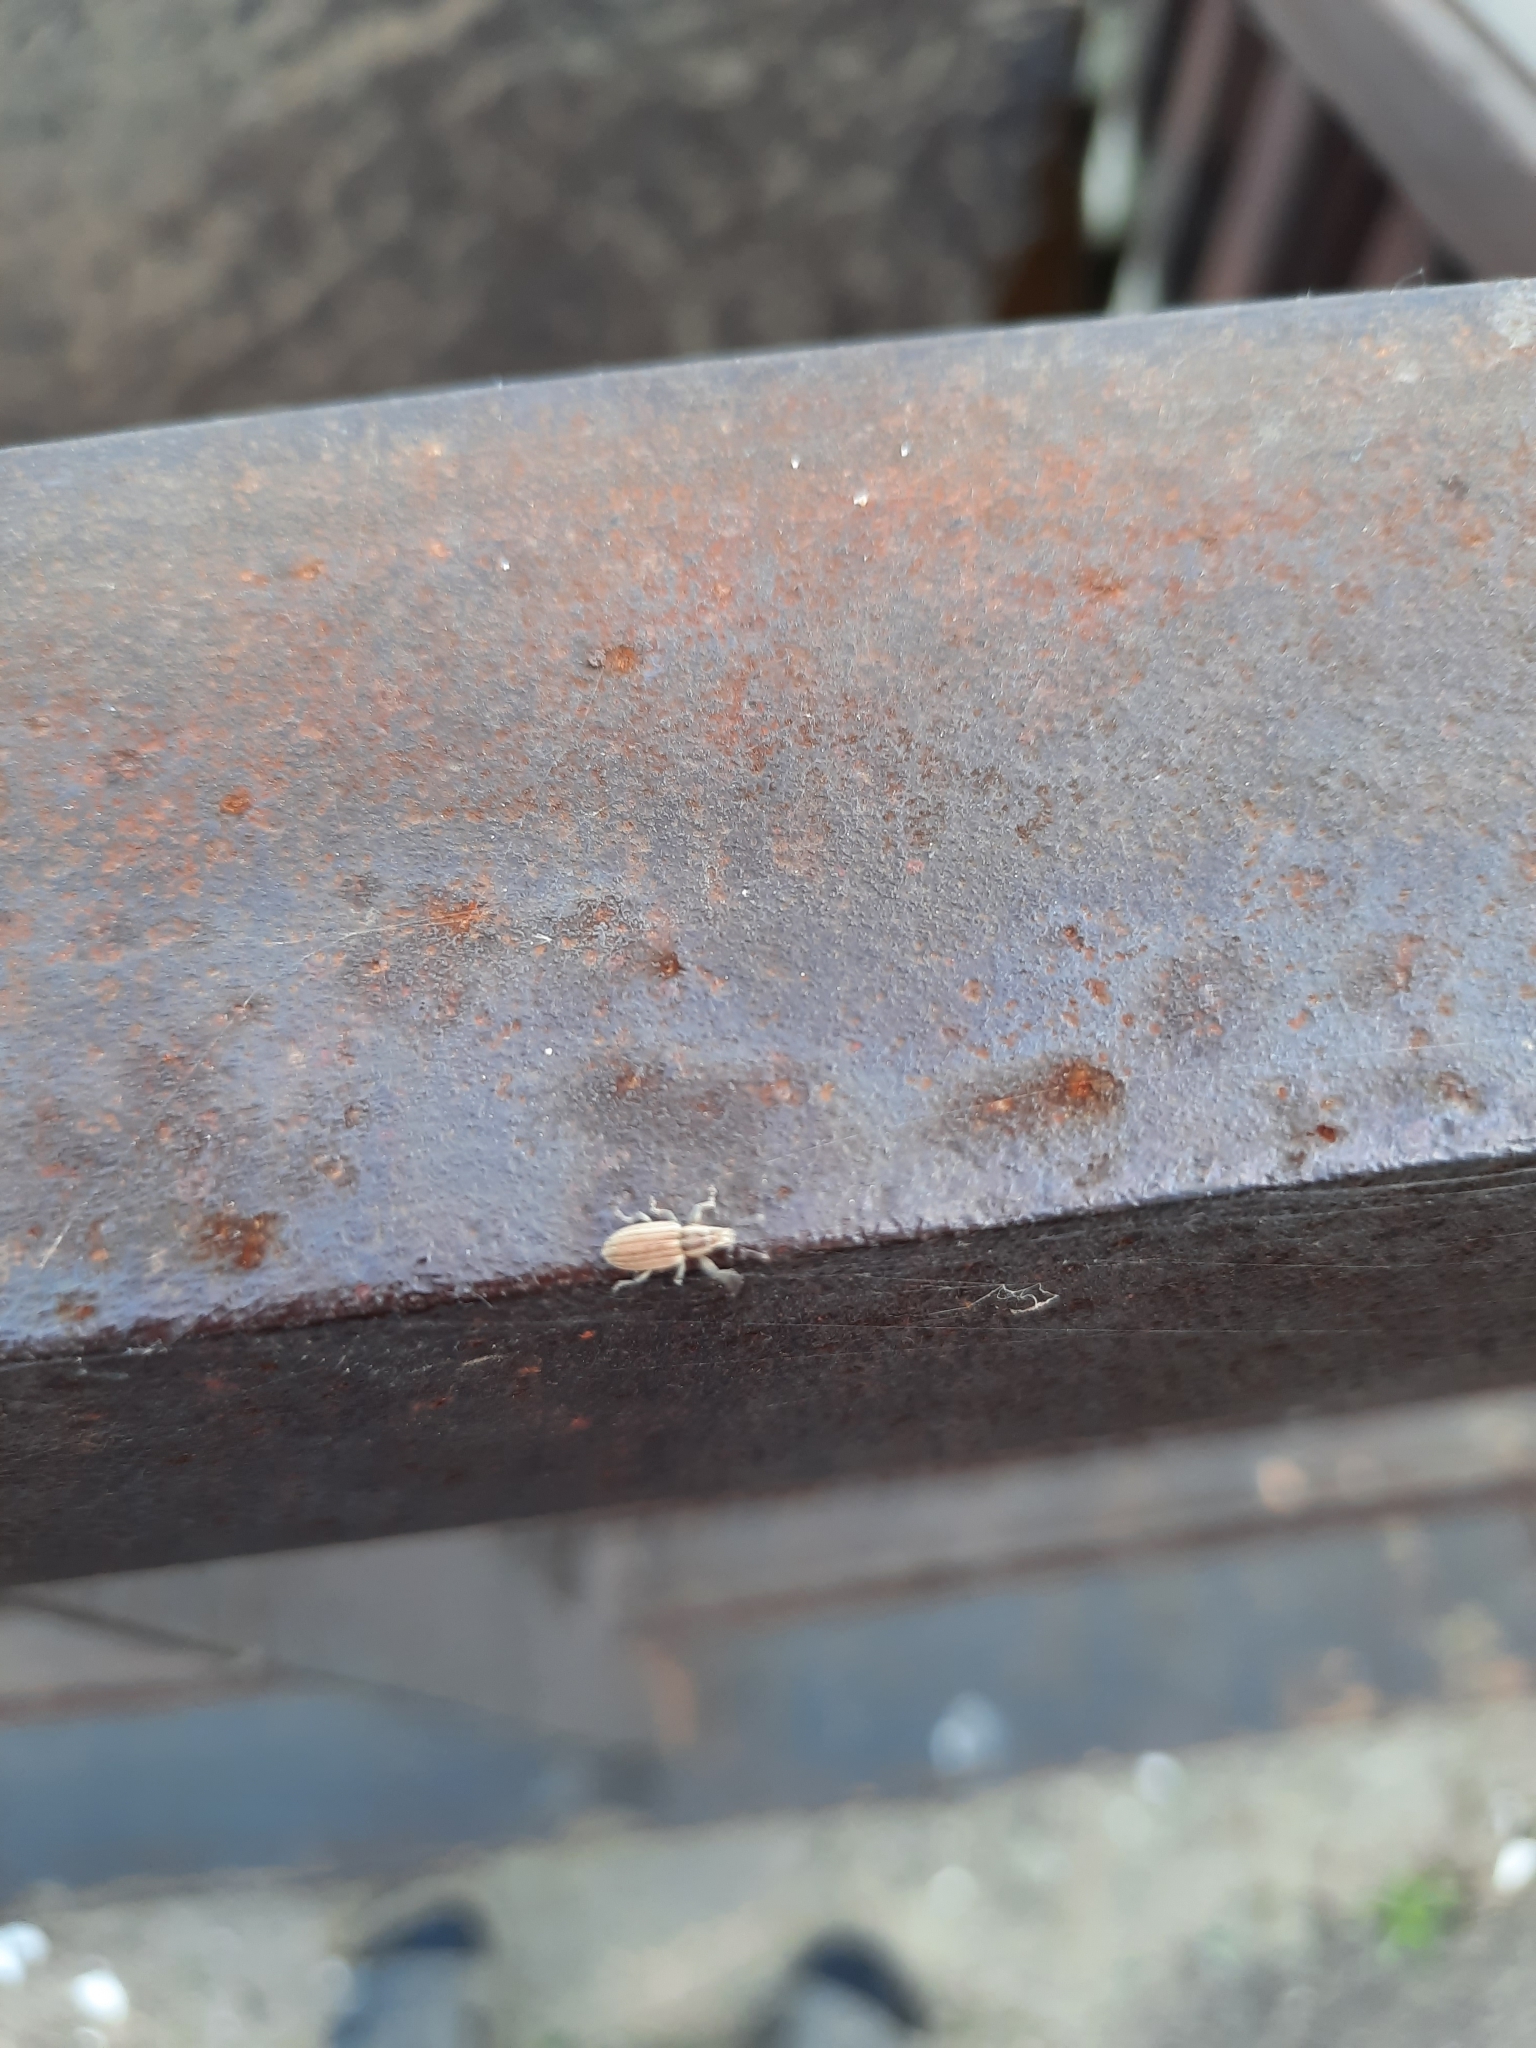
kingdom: Animalia
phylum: Arthropoda
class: Insecta
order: Coleoptera
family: Curculionidae
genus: Sitona
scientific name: Sitona lineatus
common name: Weevil
